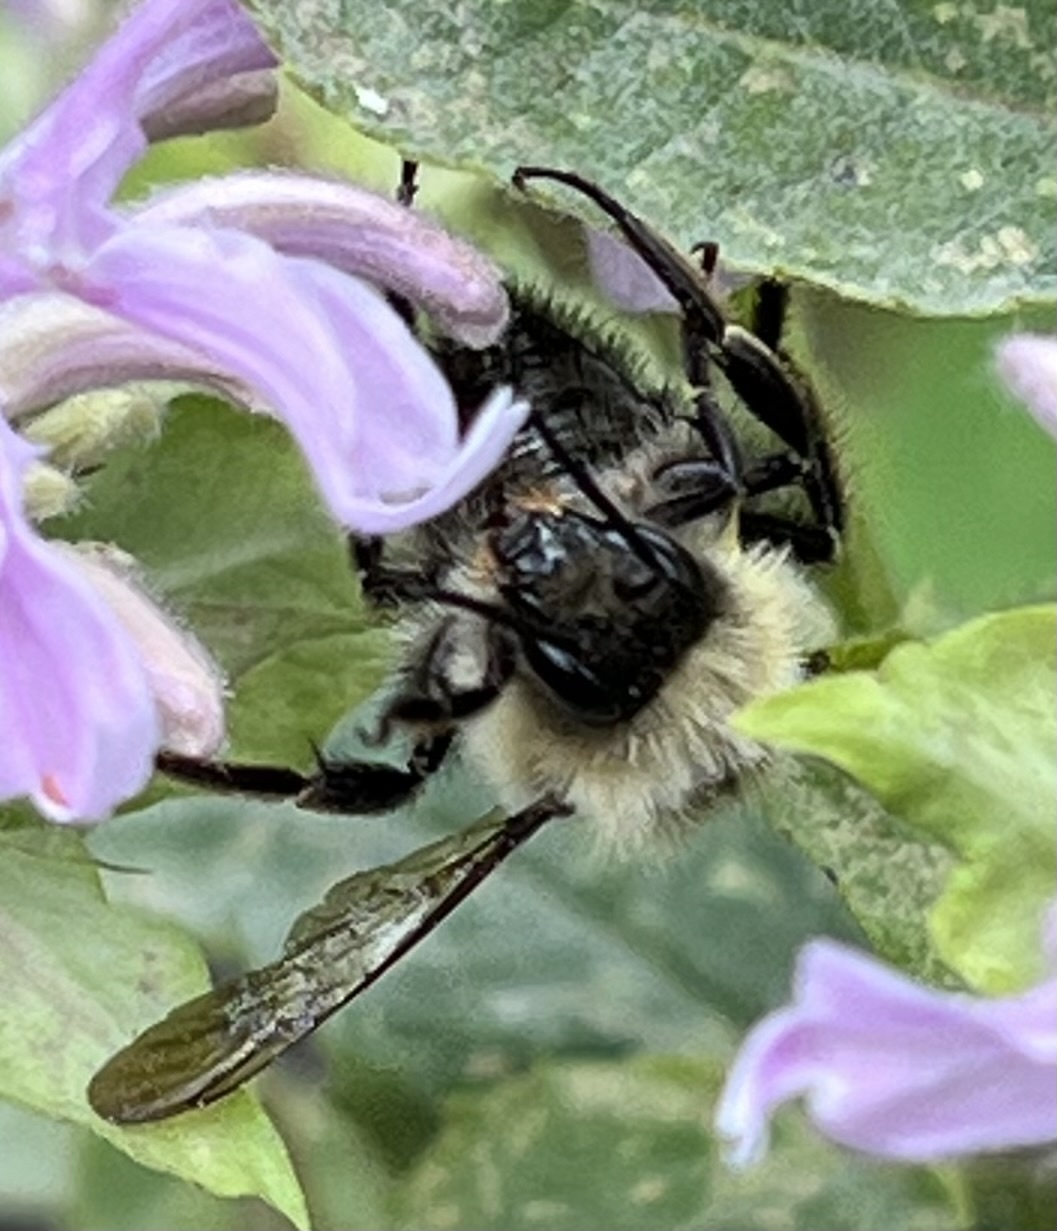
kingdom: Animalia
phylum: Arthropoda
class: Insecta
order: Hymenoptera
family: Apidae
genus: Bombus
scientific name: Bombus bimaculatus
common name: Two-spotted bumble bee
